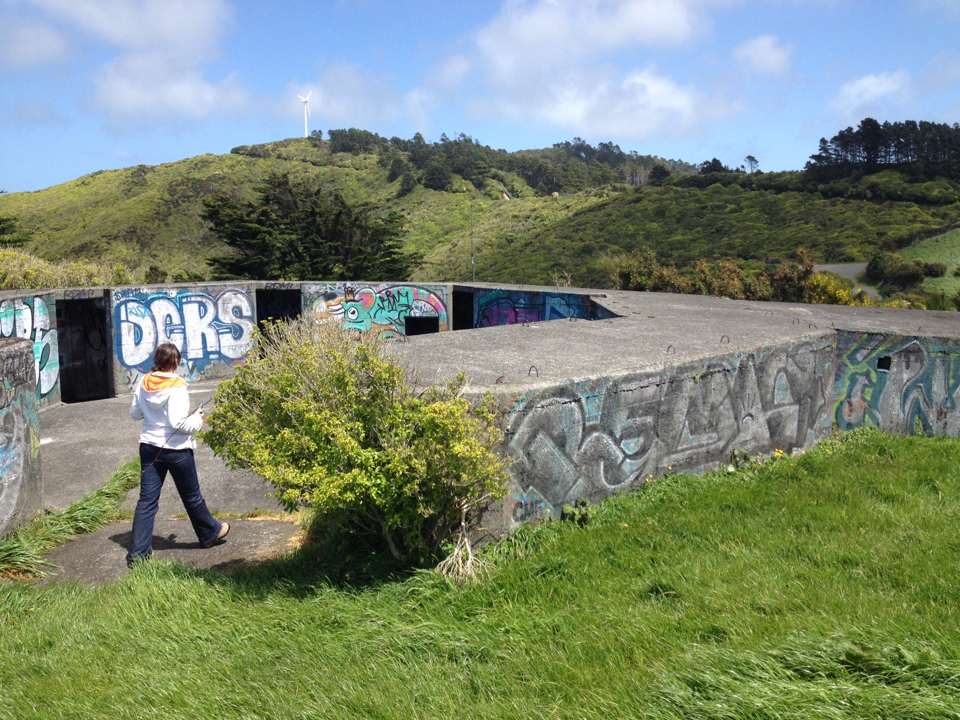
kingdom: Plantae
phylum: Tracheophyta
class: Magnoliopsida
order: Malpighiales
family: Violaceae
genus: Melicytus
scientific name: Melicytus ramiflorus
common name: Mahoe
